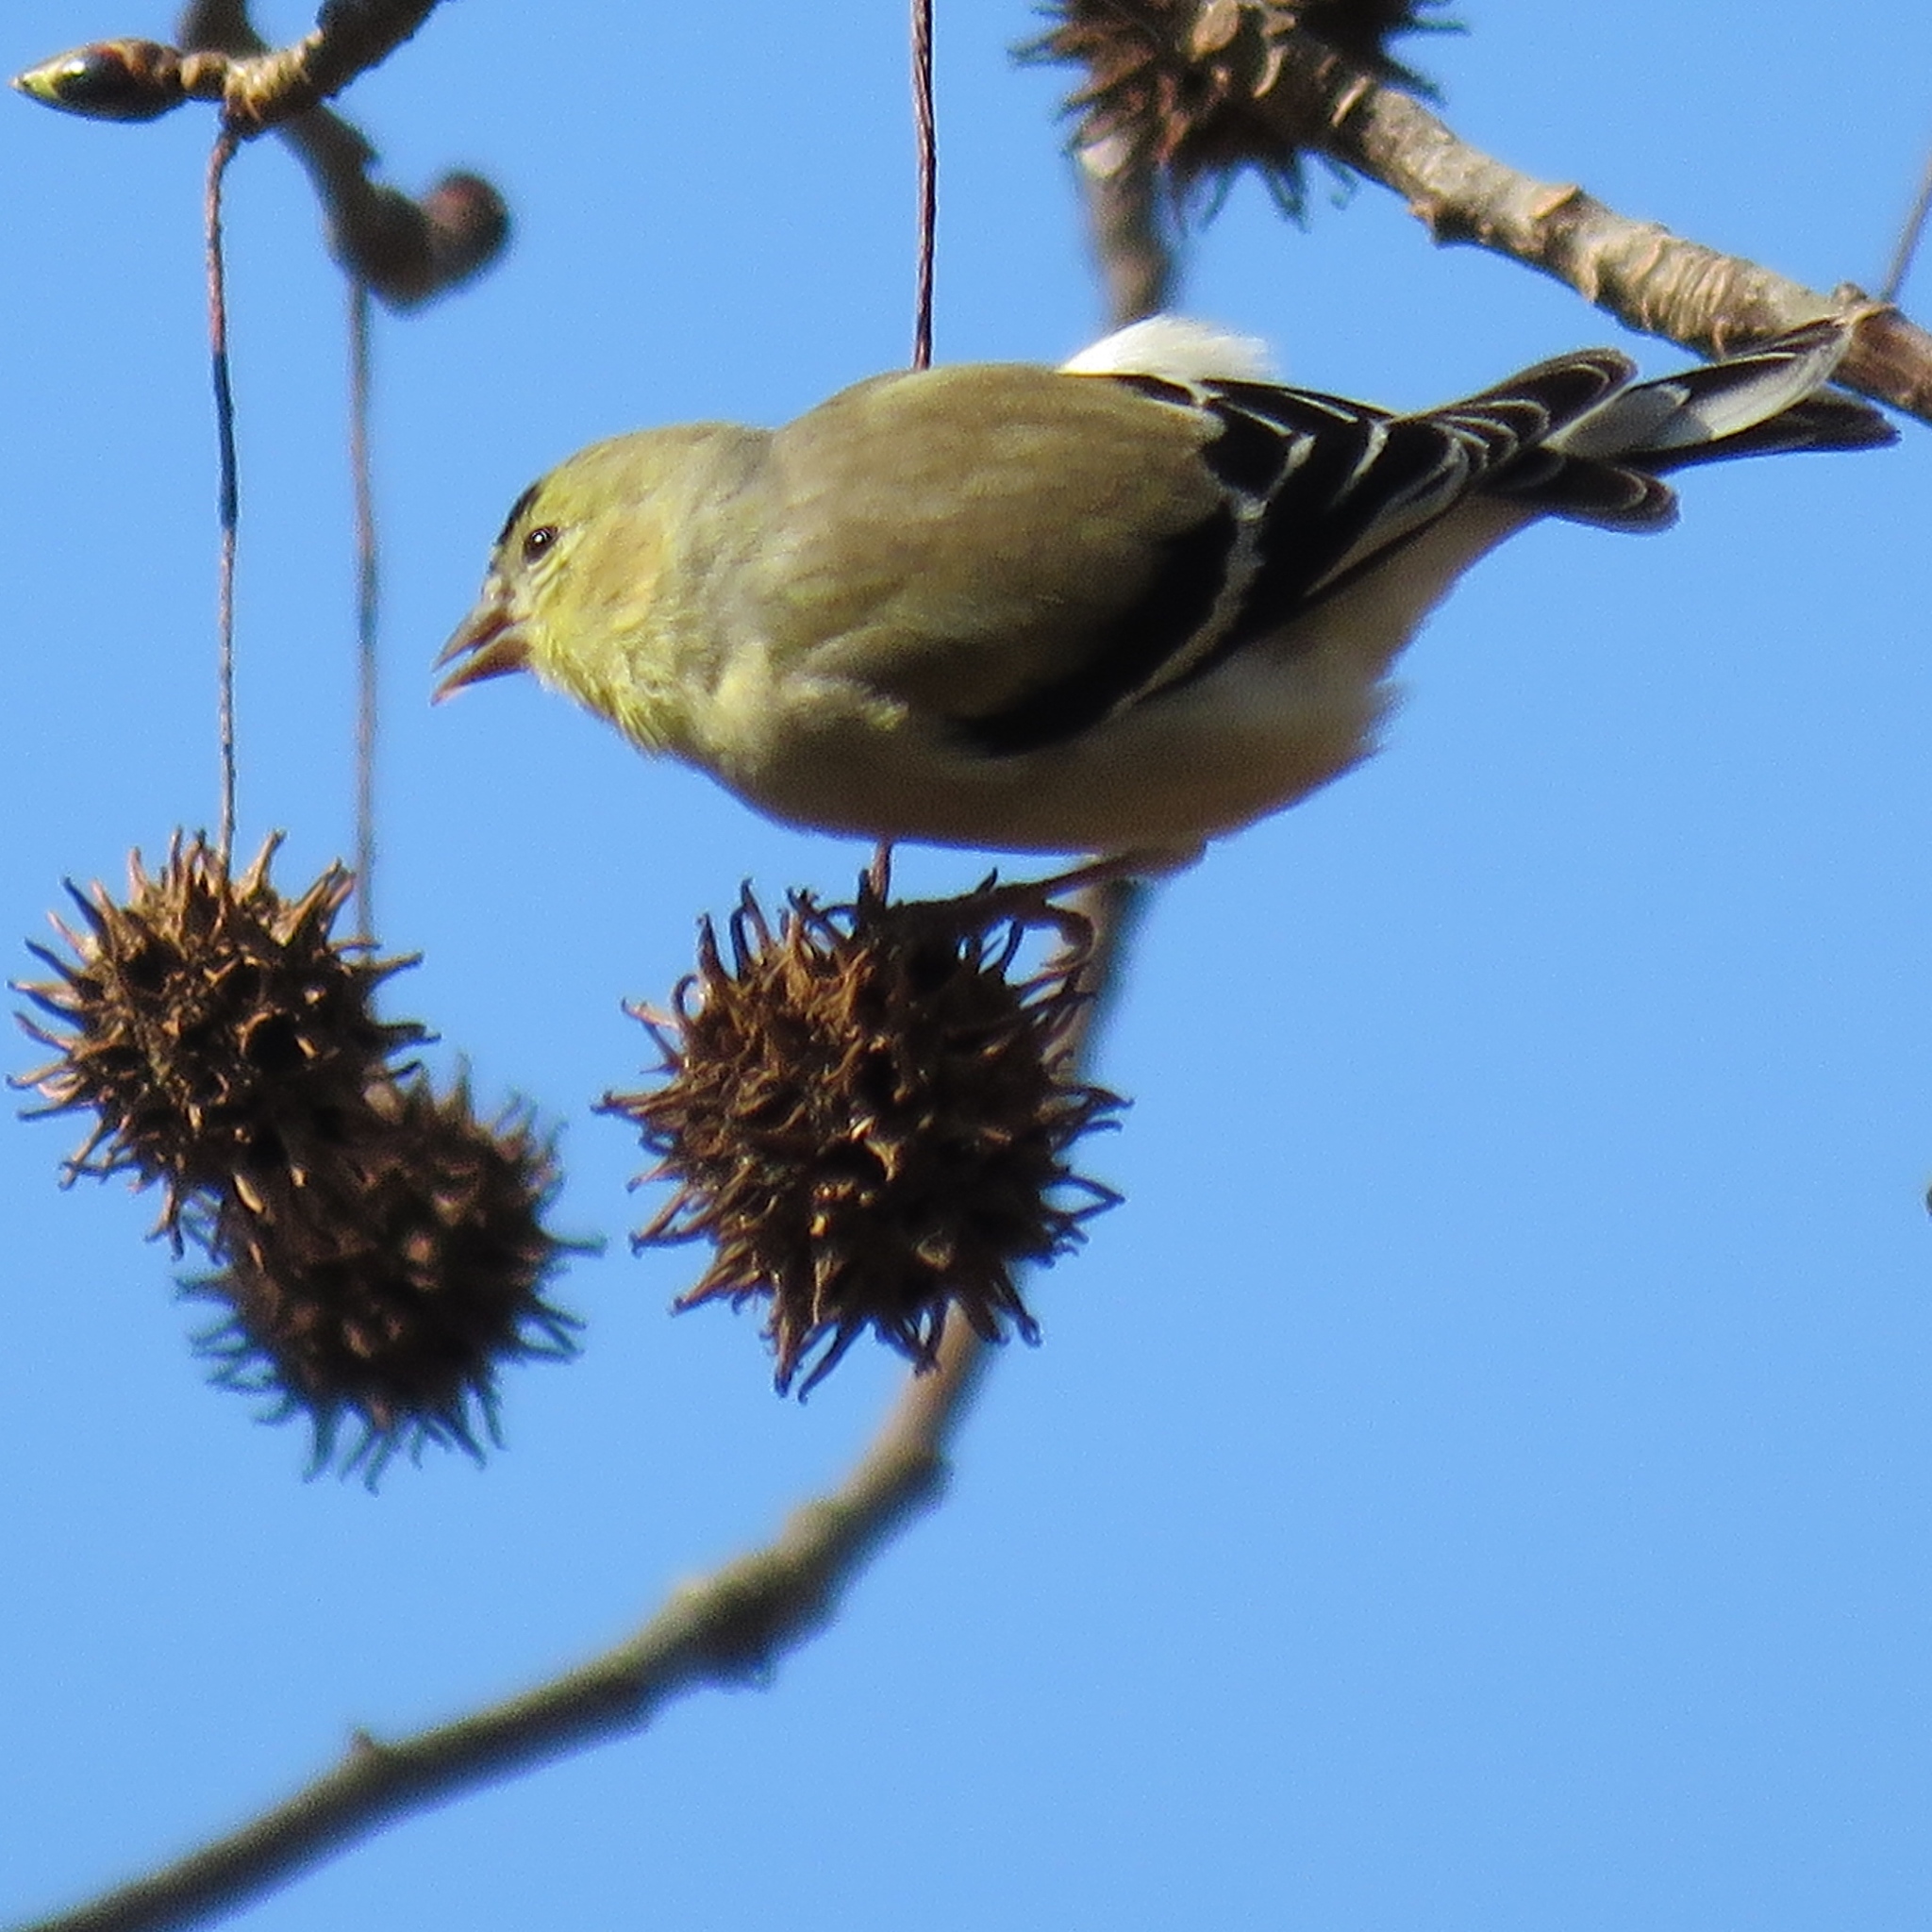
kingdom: Animalia
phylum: Chordata
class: Aves
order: Passeriformes
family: Fringillidae
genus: Spinus
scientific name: Spinus tristis
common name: American goldfinch
